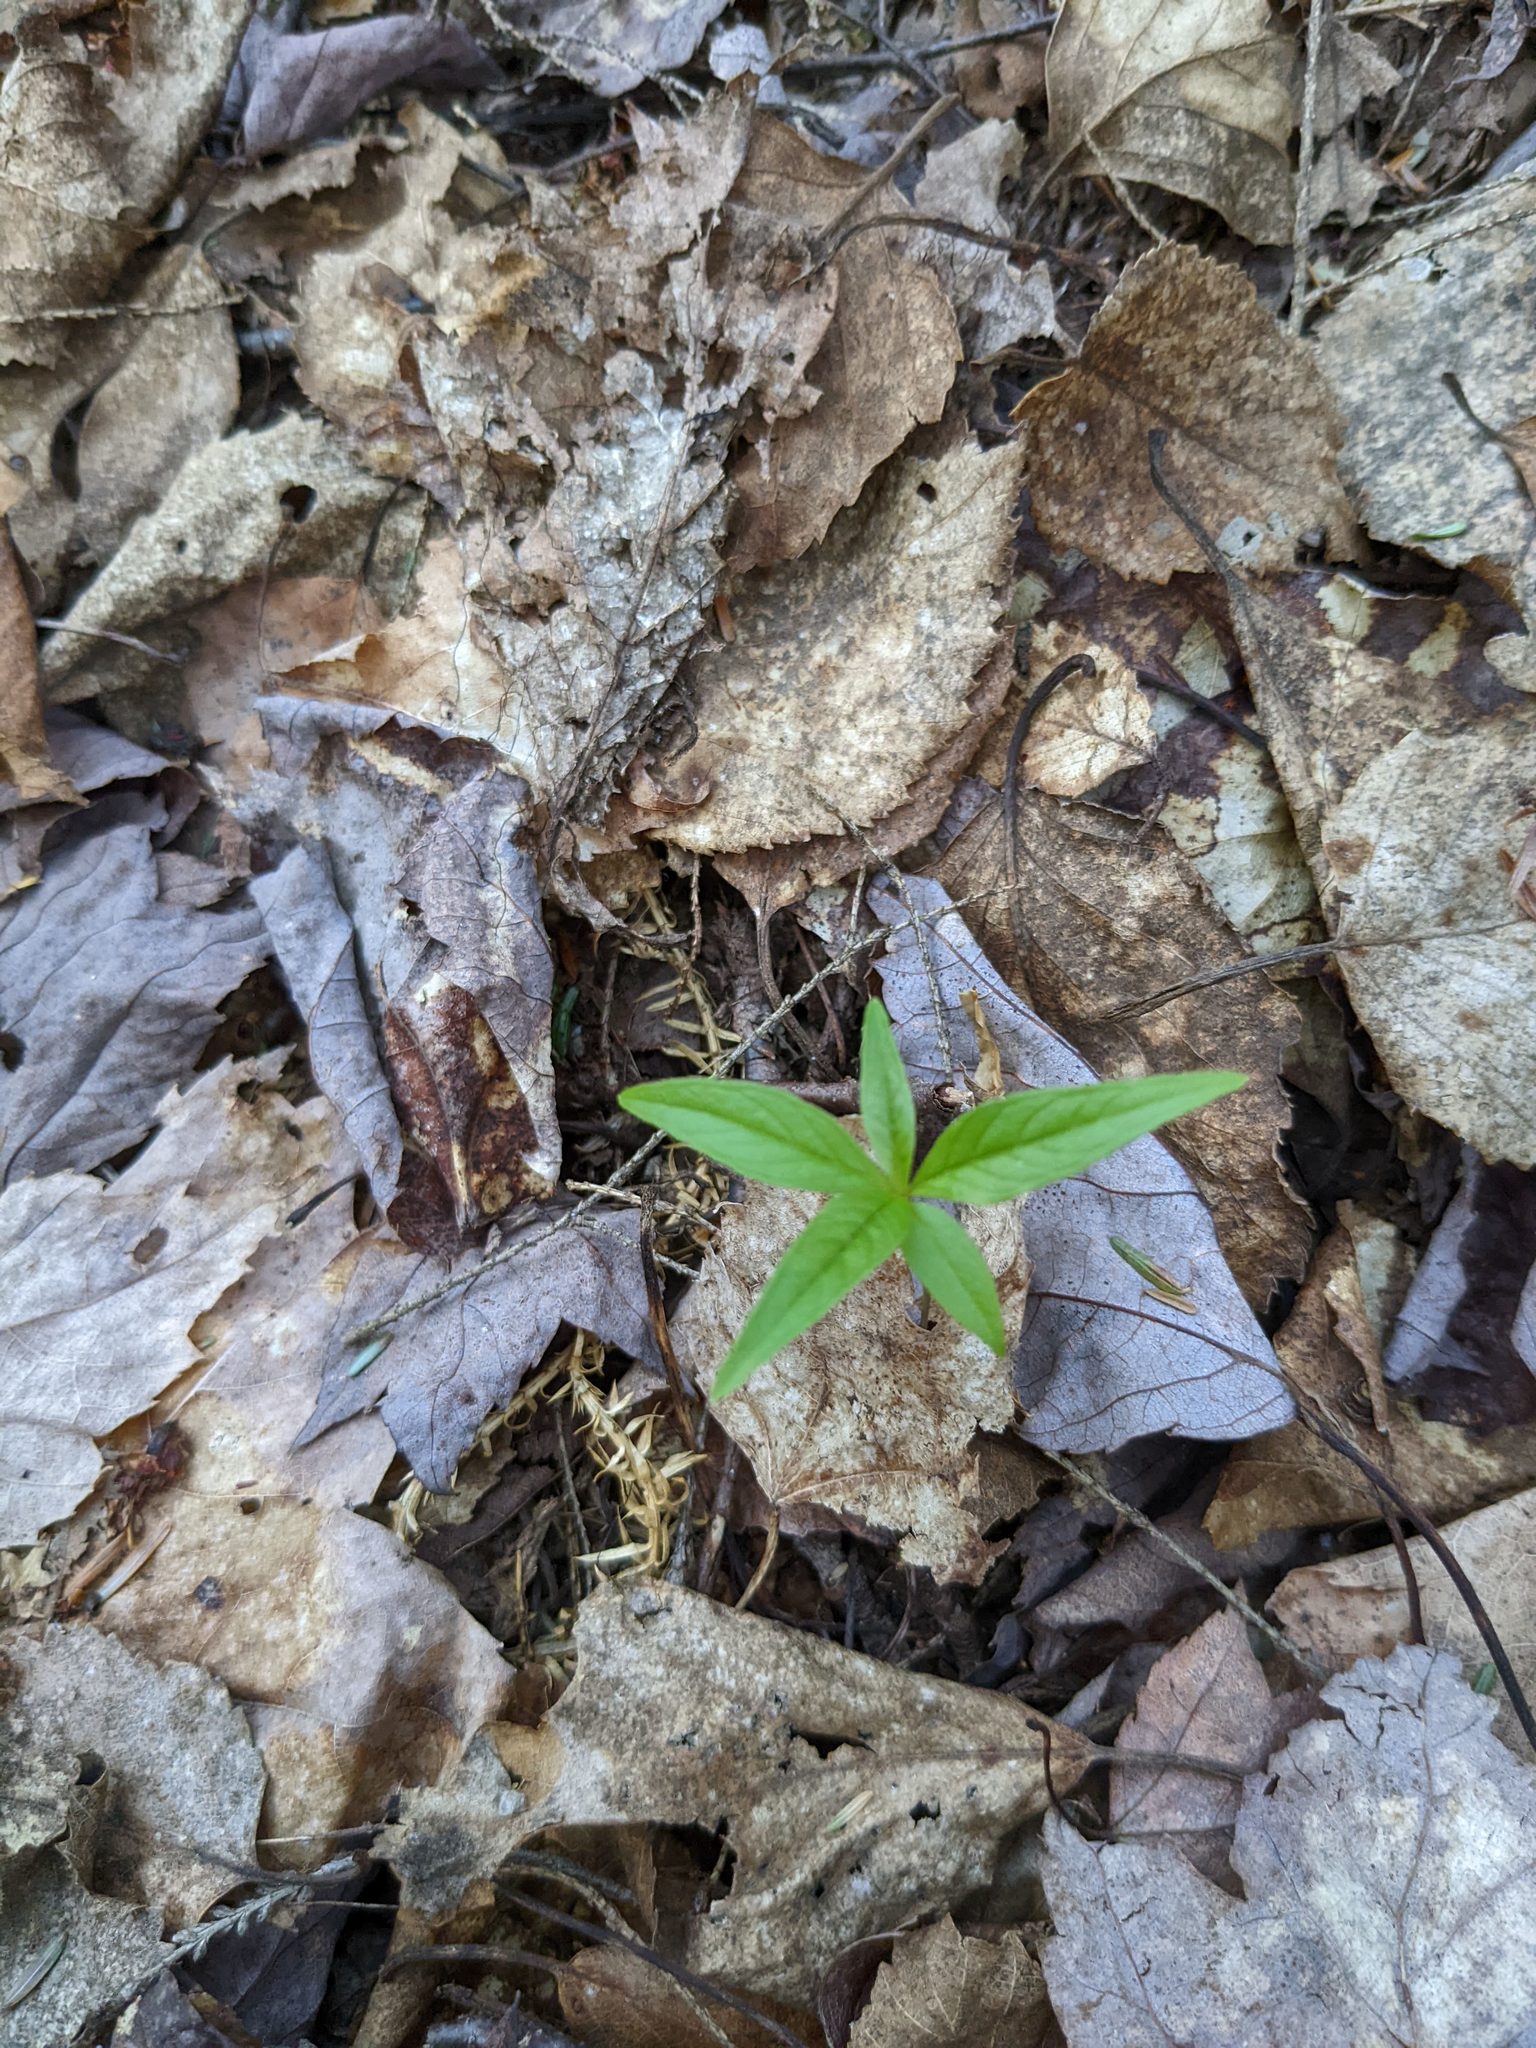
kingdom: Plantae
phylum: Tracheophyta
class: Magnoliopsida
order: Ericales
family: Primulaceae
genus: Lysimachia
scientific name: Lysimachia borealis
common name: American starflower
